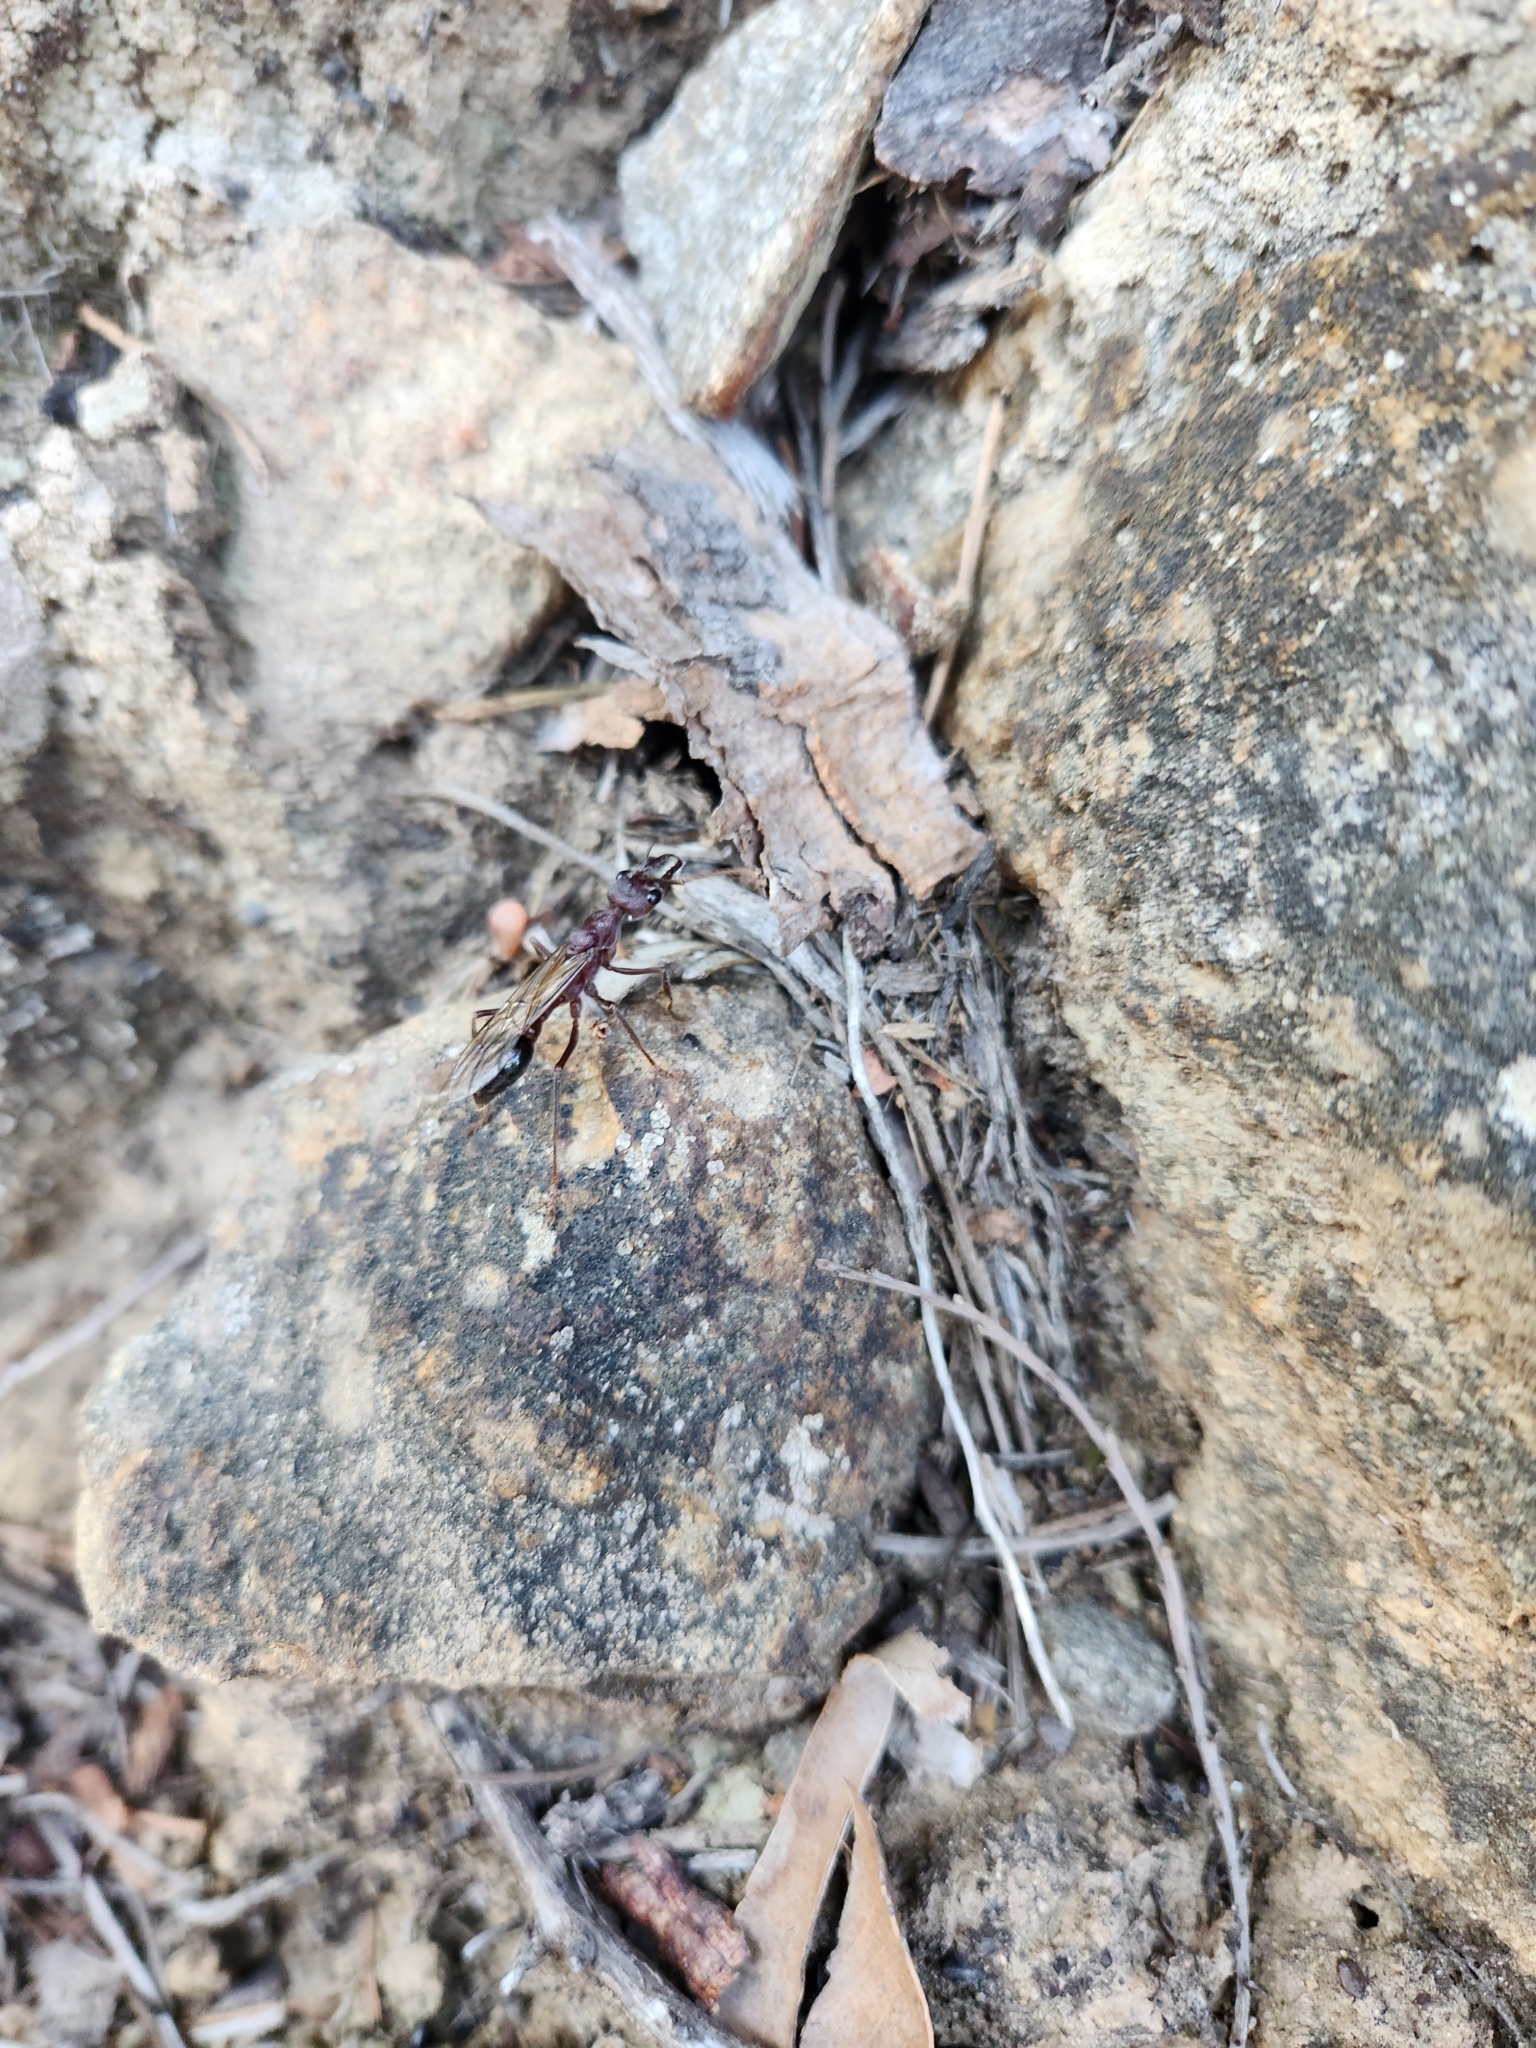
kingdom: Animalia
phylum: Arthropoda
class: Insecta
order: Hymenoptera
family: Formicidae
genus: Myrmecia
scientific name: Myrmecia forficata
